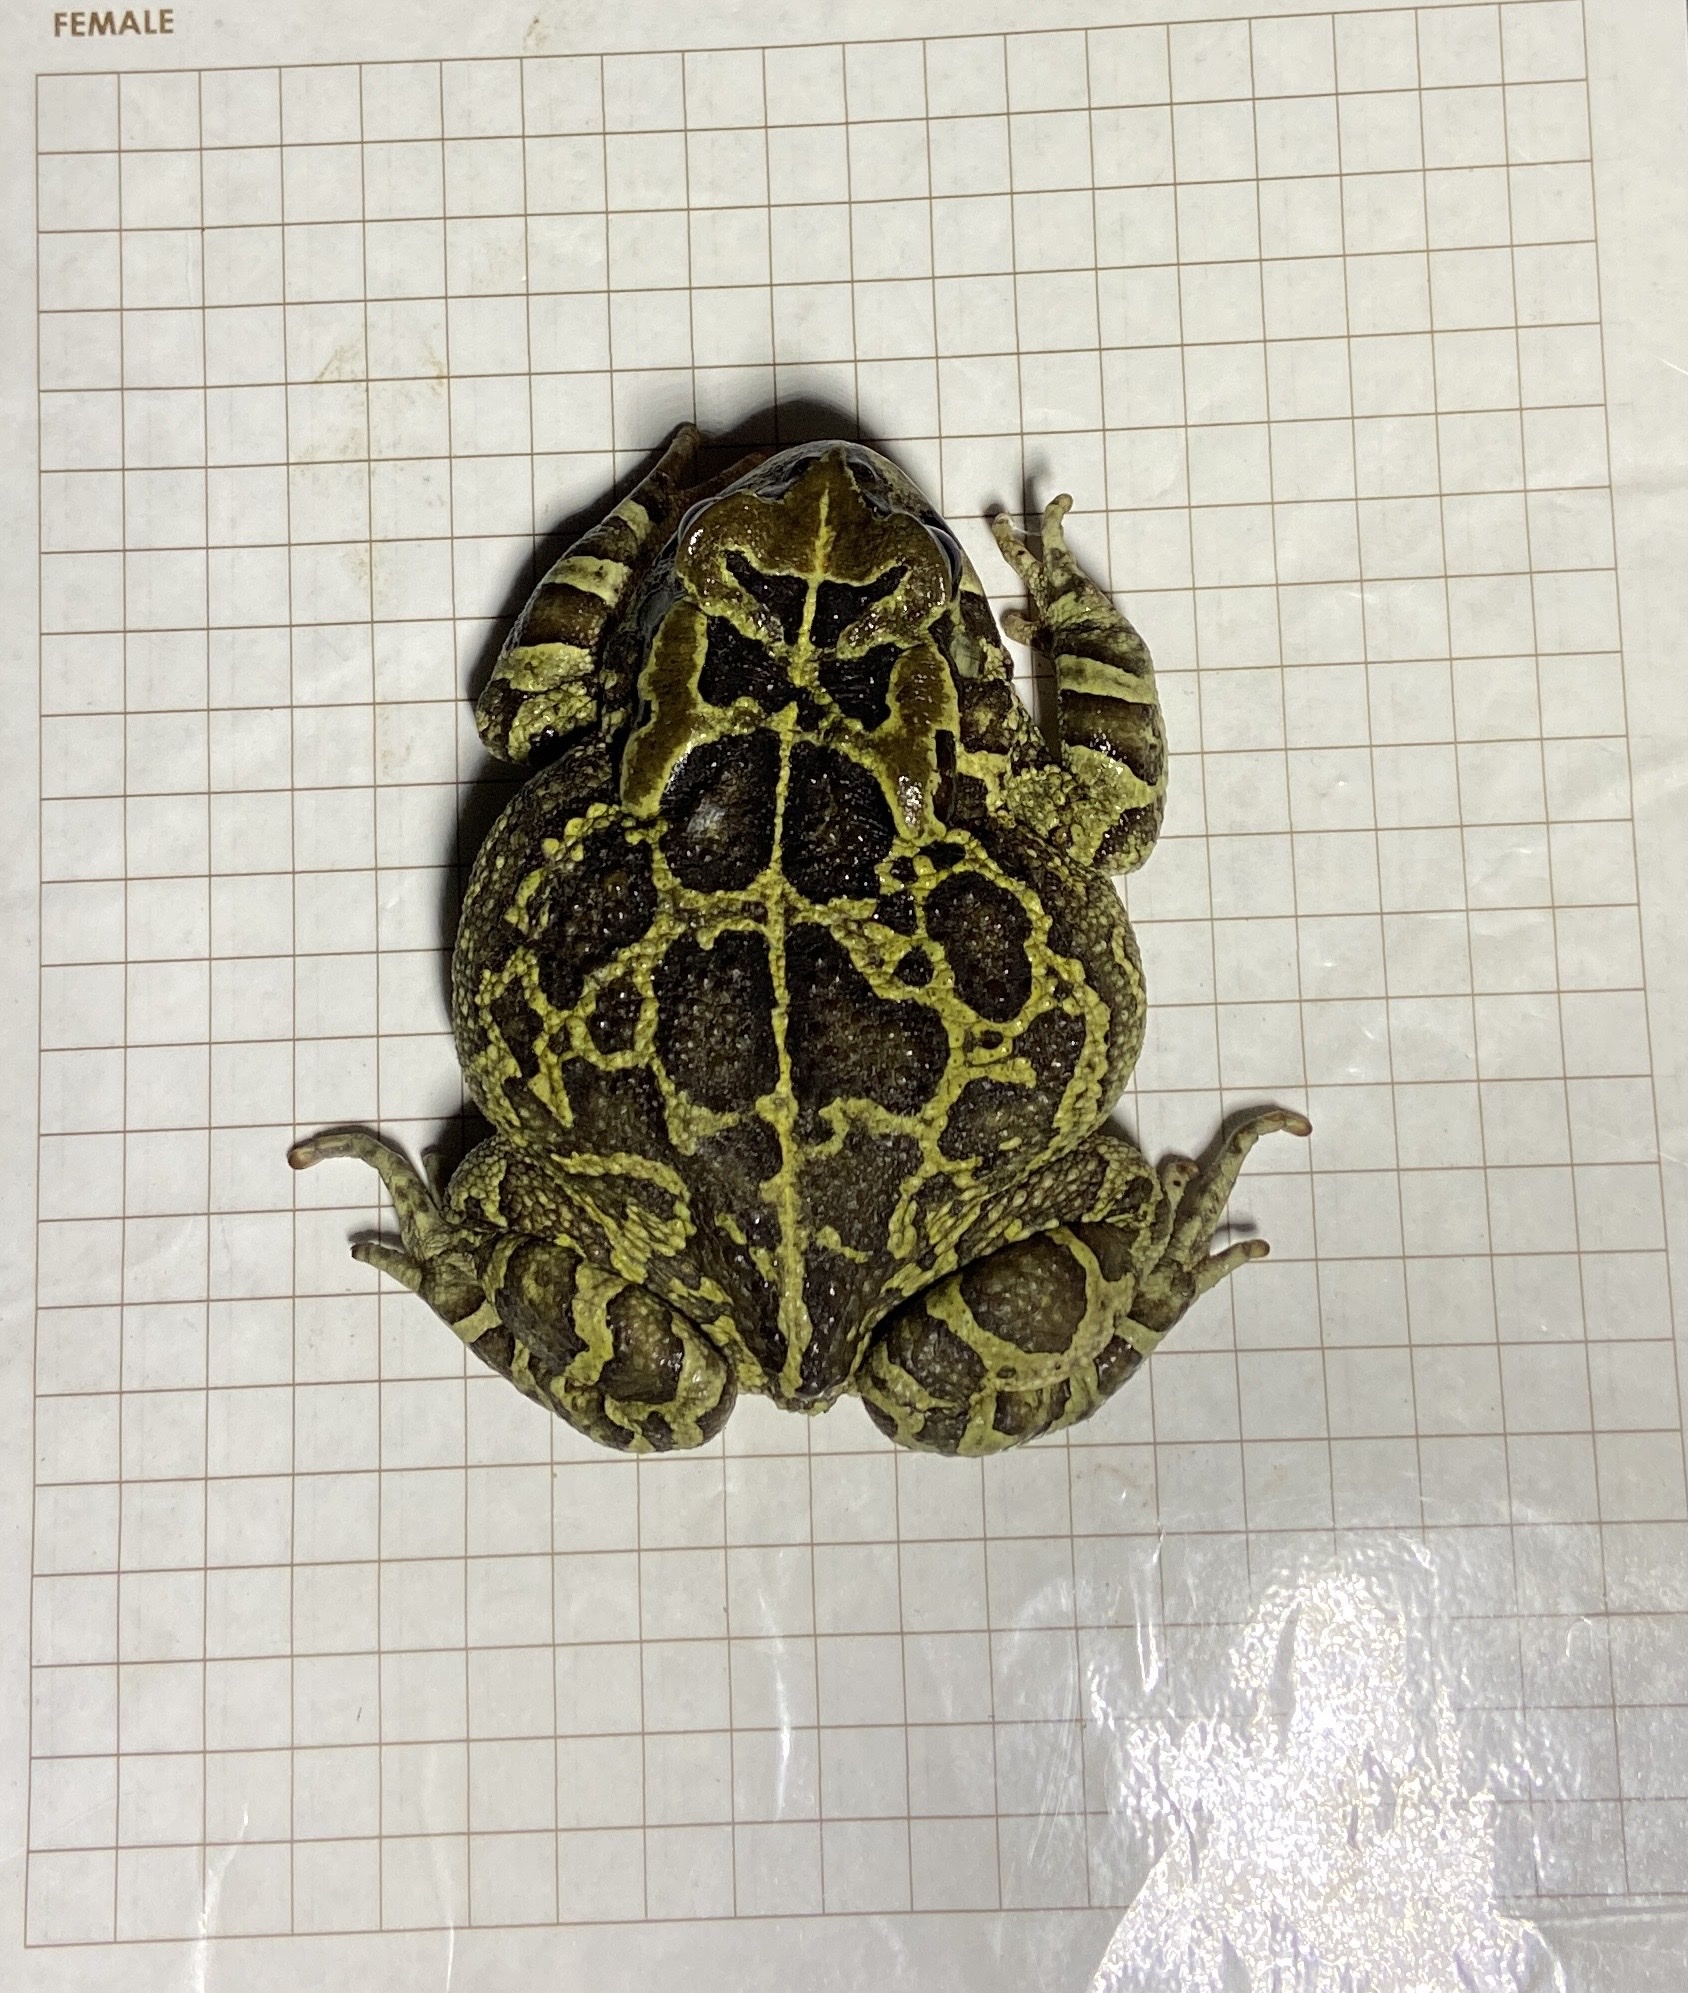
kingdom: Animalia
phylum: Chordata
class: Amphibia
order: Anura
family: Bufonidae
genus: Sclerophrys
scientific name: Sclerophrys pantherina
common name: Panther toad
